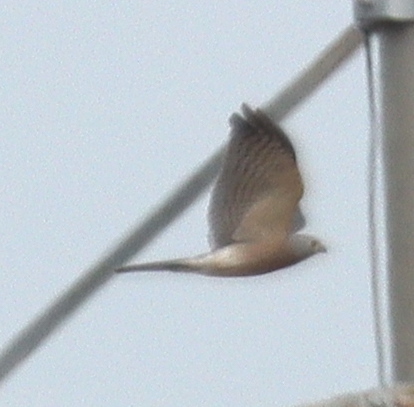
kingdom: Animalia
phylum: Chordata
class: Aves
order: Accipitriformes
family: Accipitridae
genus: Accipiter
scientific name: Accipiter badius
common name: Shikra
